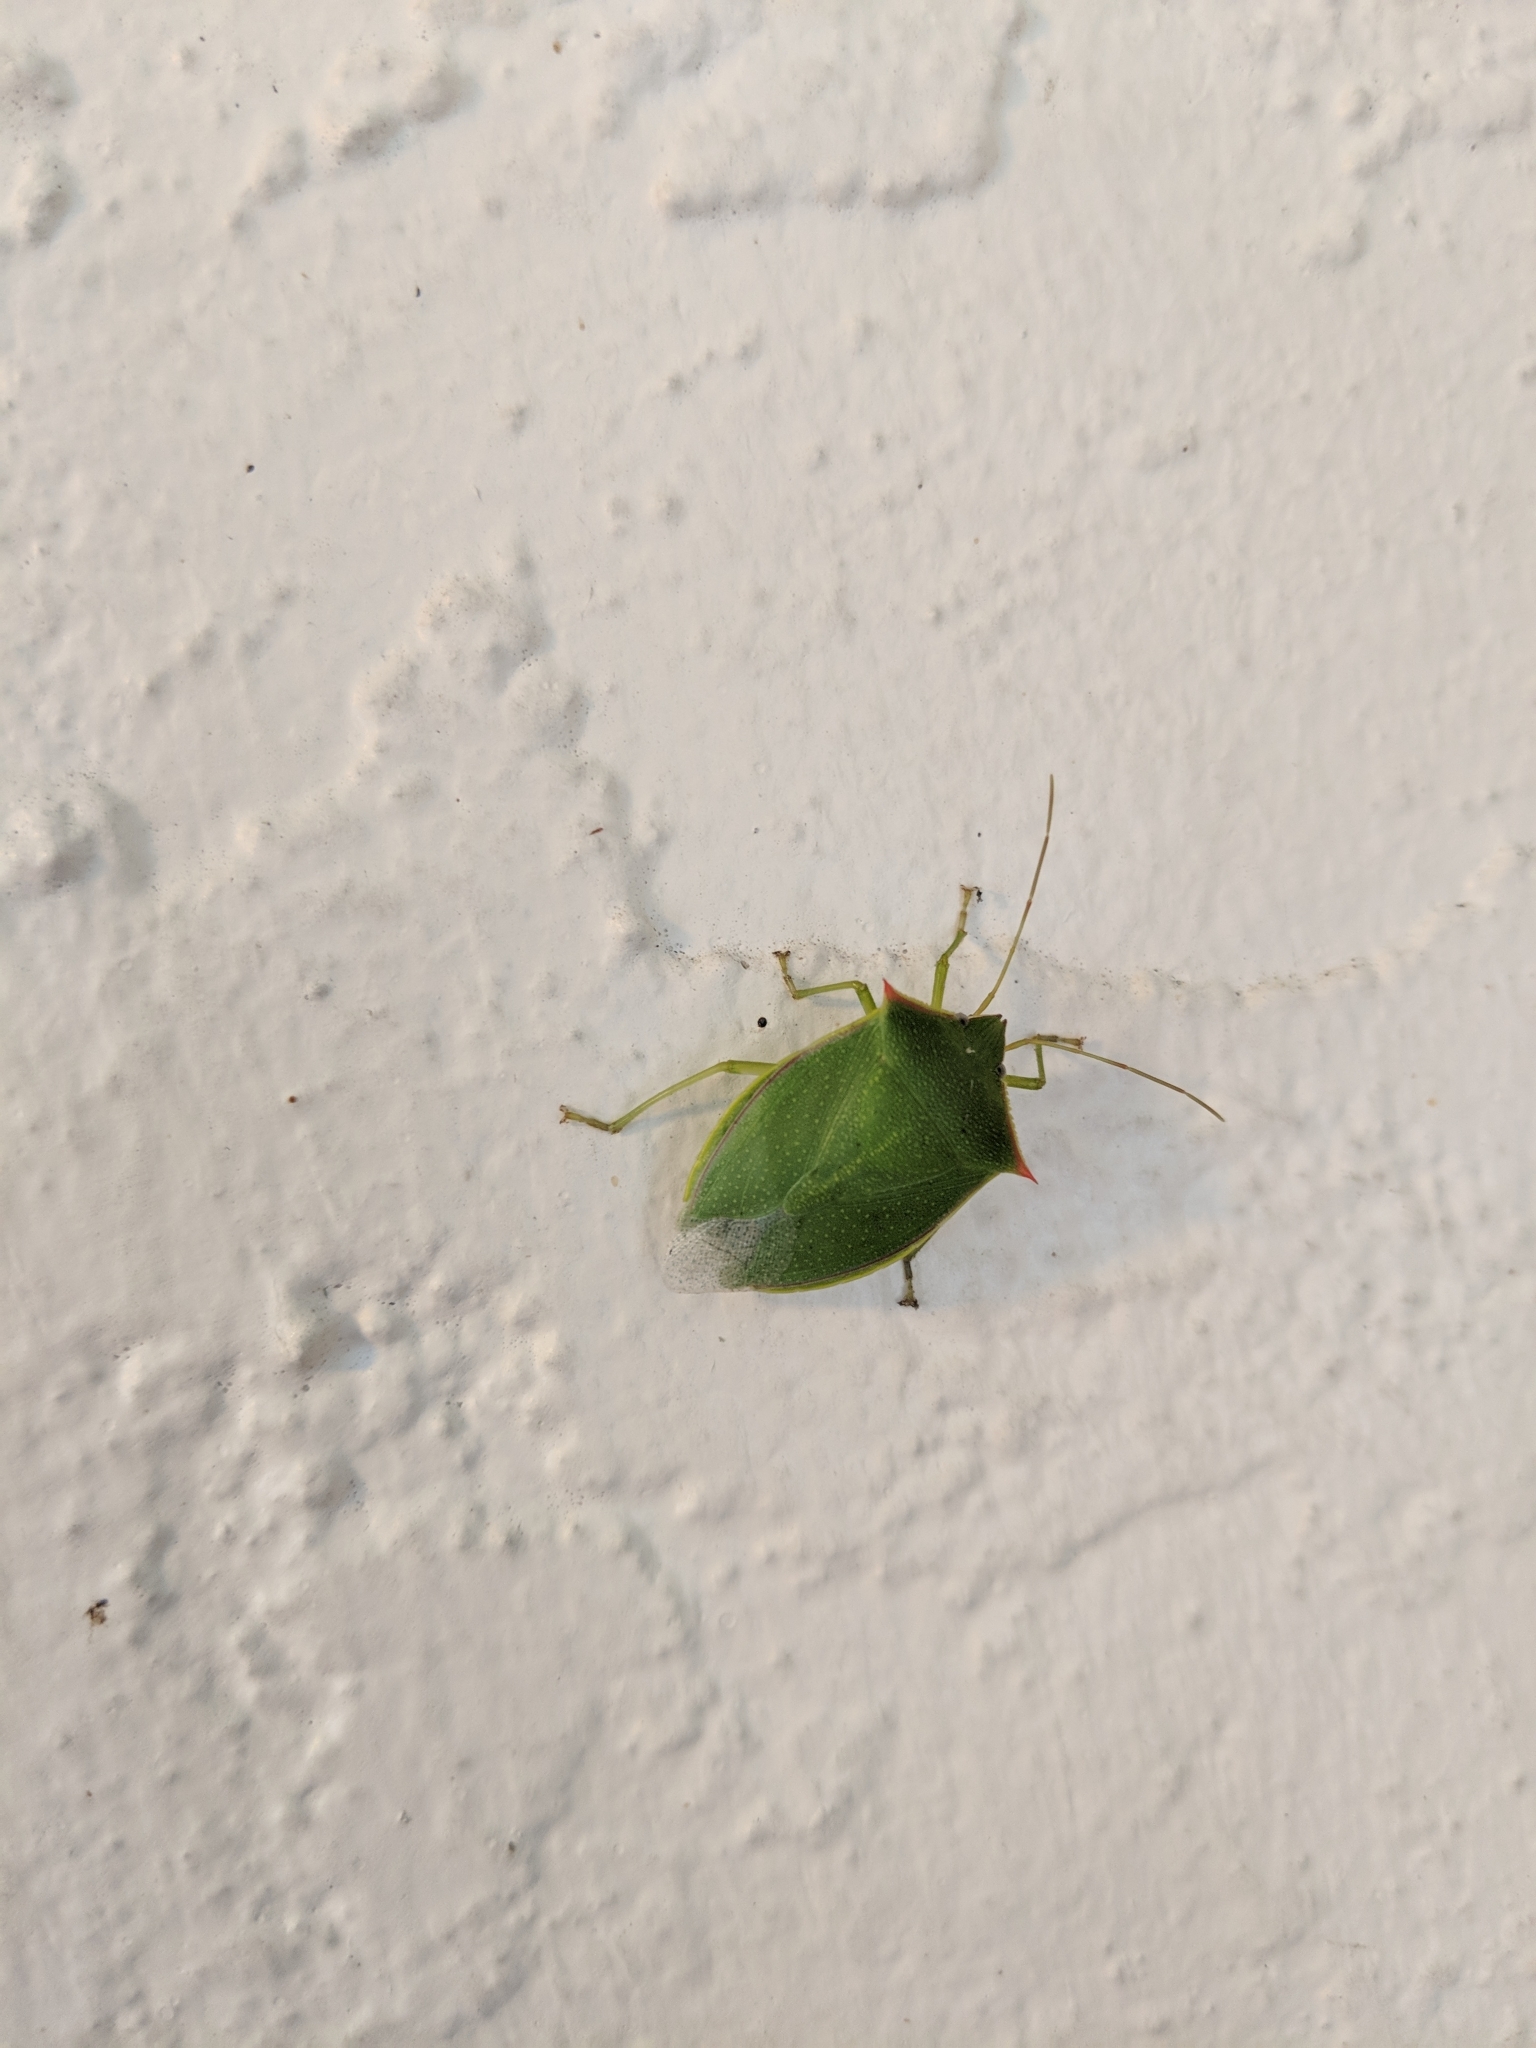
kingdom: Animalia
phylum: Arthropoda
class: Insecta
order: Hemiptera
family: Pentatomidae
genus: Loxa
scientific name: Loxa flavicollis
